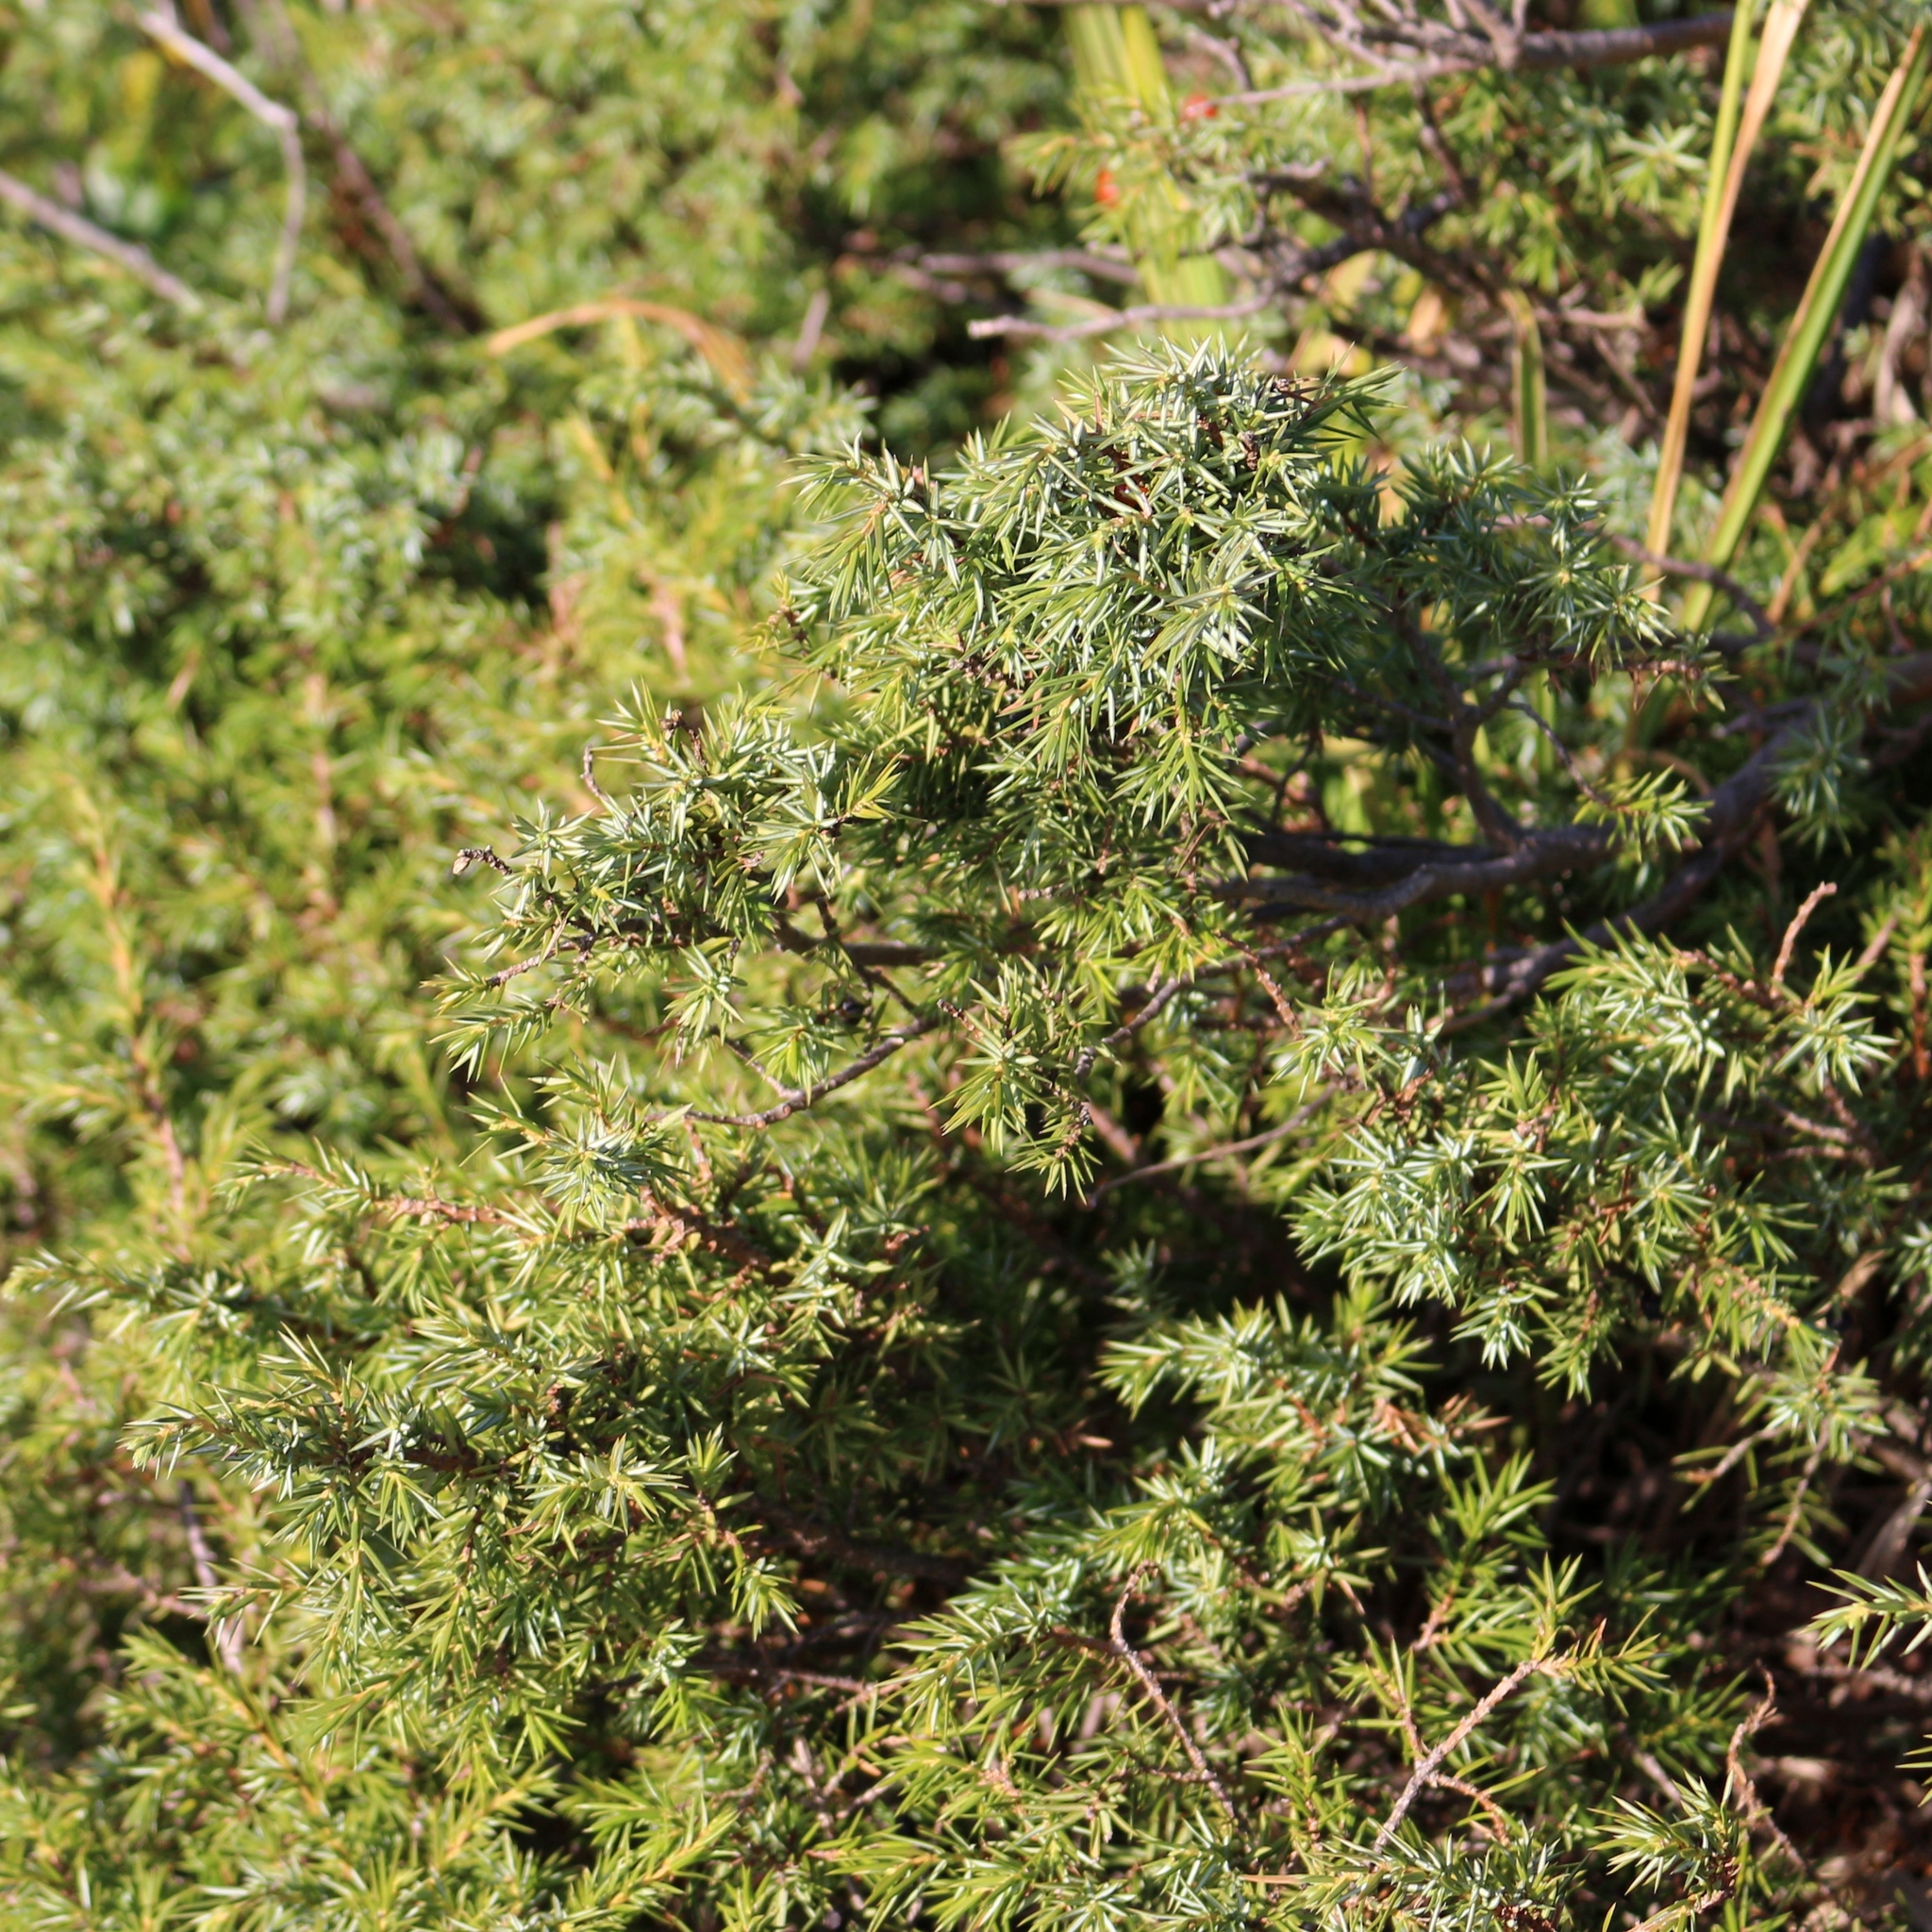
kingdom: Plantae
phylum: Tracheophyta
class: Pinopsida
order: Pinales
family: Cupressaceae
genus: Juniperus
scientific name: Juniperus communis
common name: Common juniper
